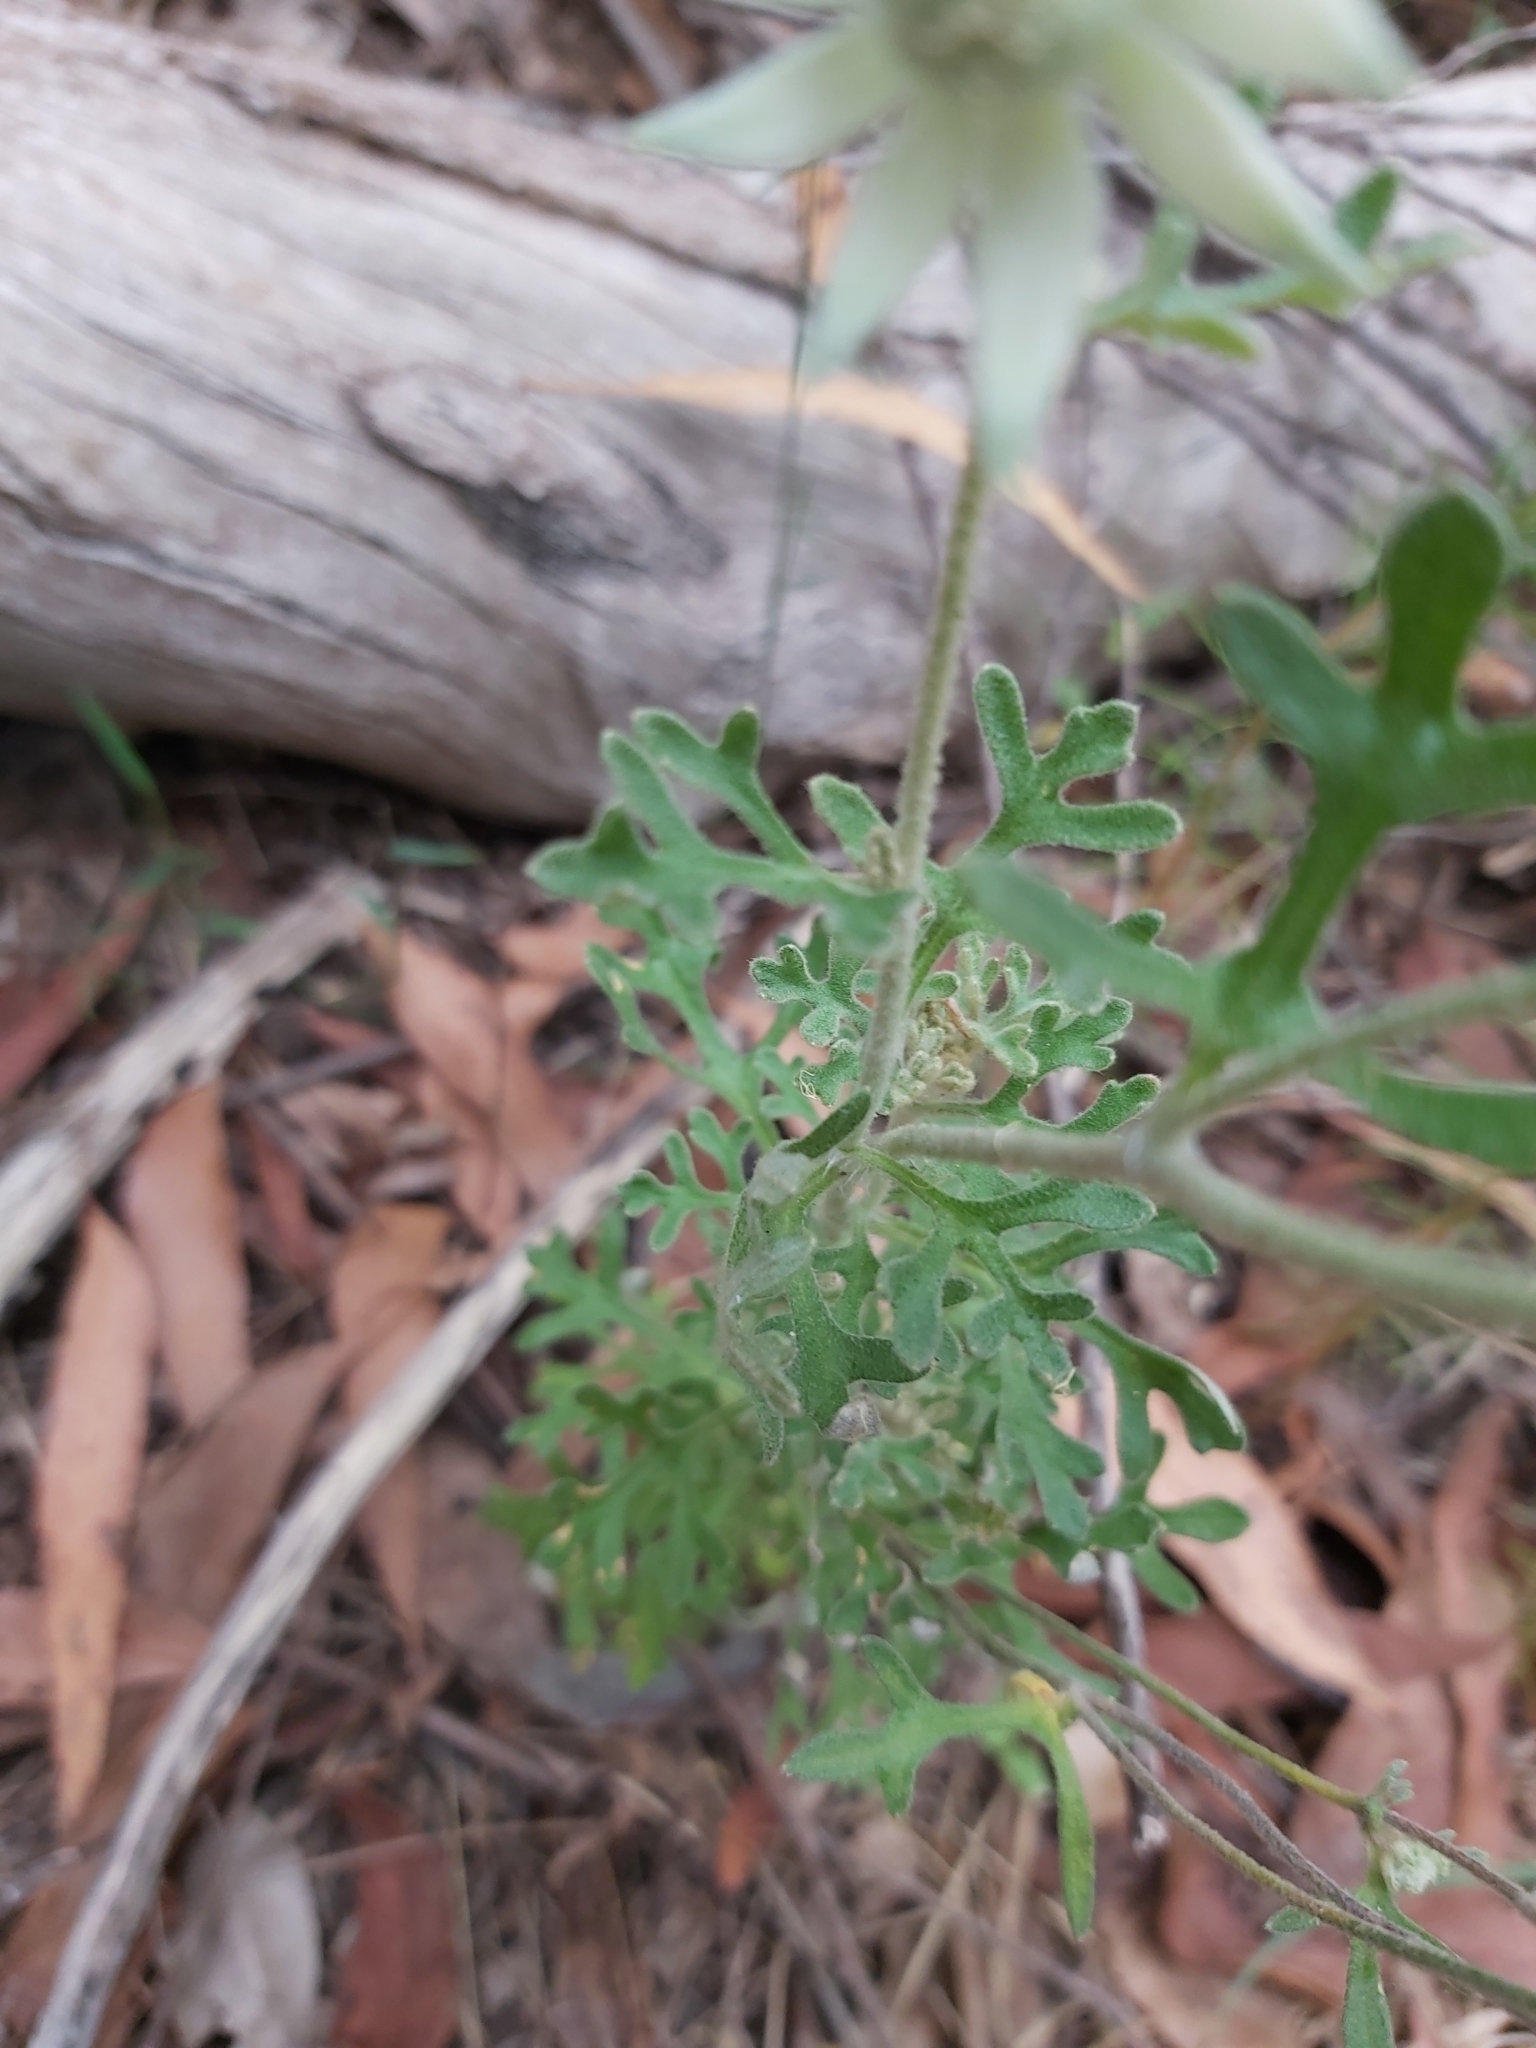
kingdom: Plantae
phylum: Tracheophyta
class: Magnoliopsida
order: Apiales
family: Apiaceae
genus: Actinotus
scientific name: Actinotus helianthi
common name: Flannel-flower
